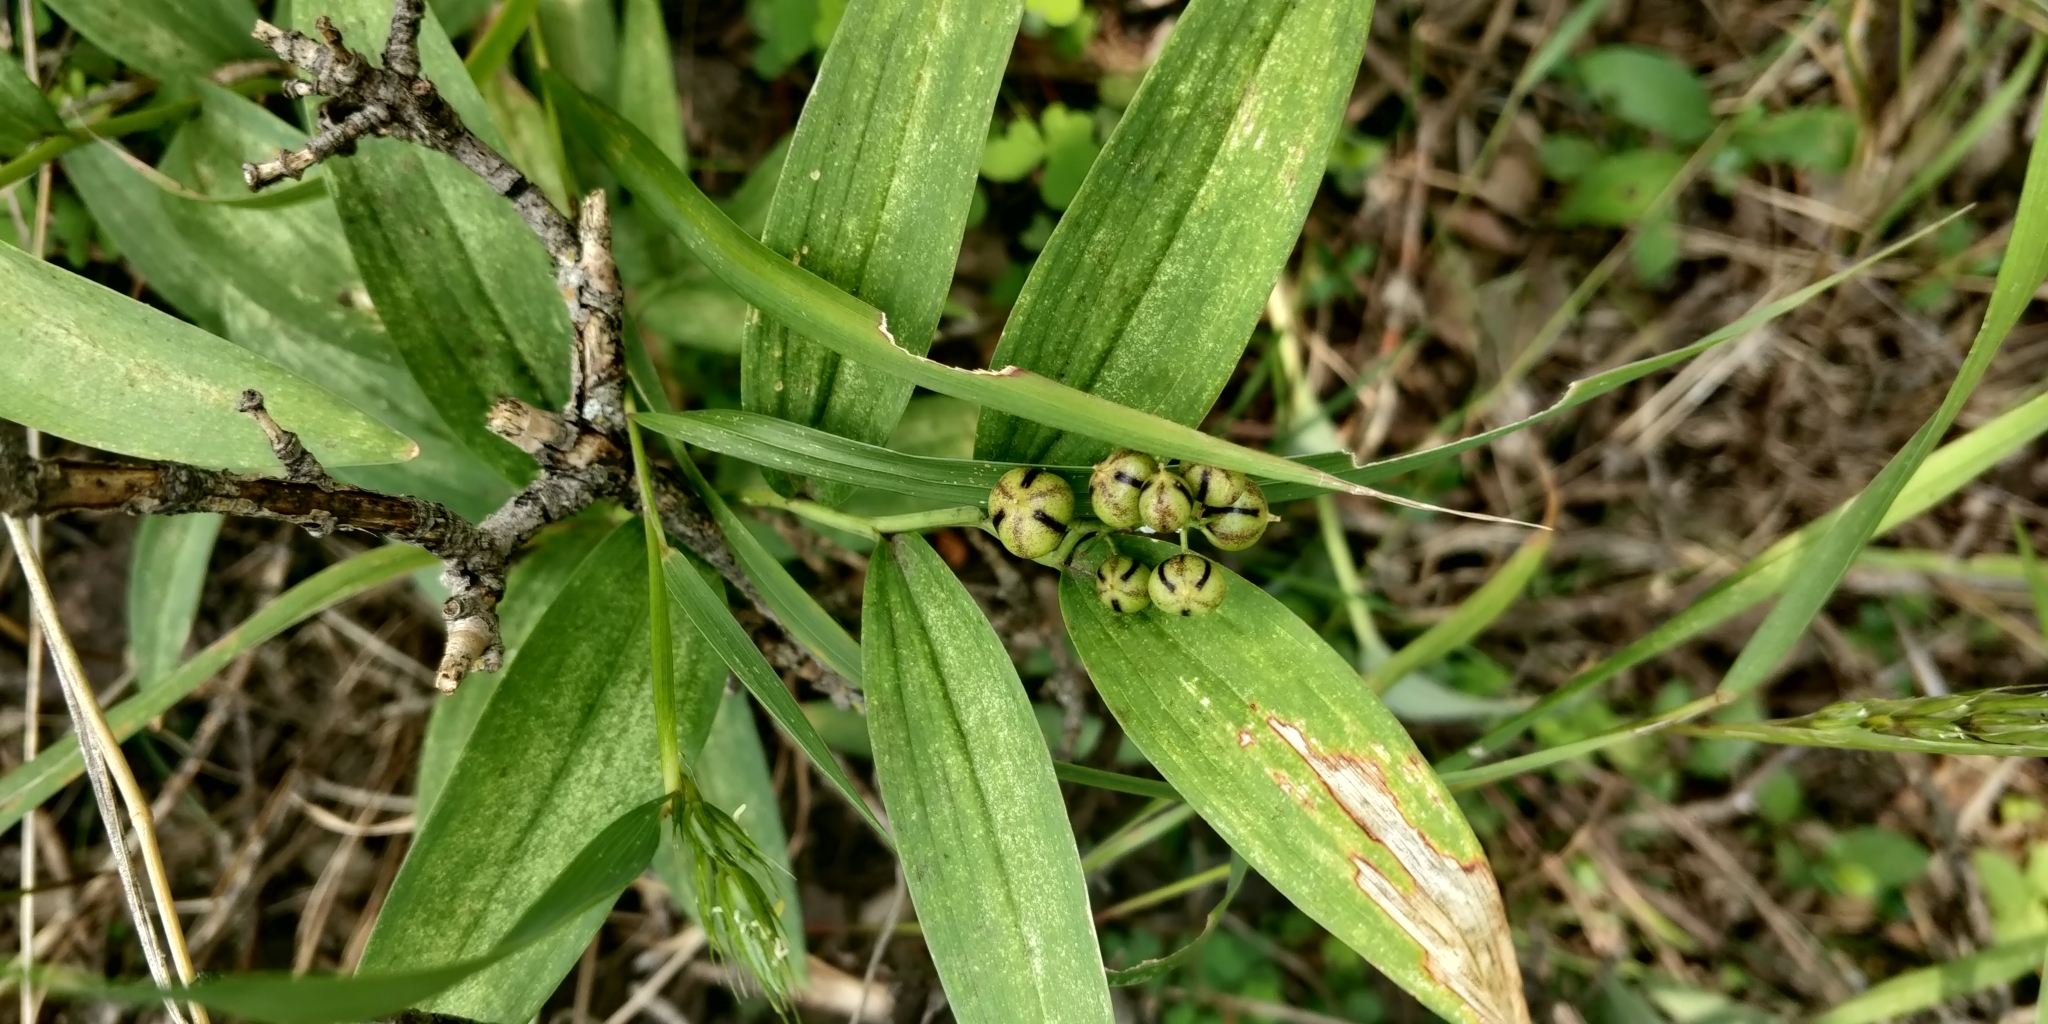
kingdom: Plantae
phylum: Tracheophyta
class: Liliopsida
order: Asparagales
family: Asparagaceae
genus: Maianthemum
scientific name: Maianthemum stellatum
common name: Little false solomon's seal
